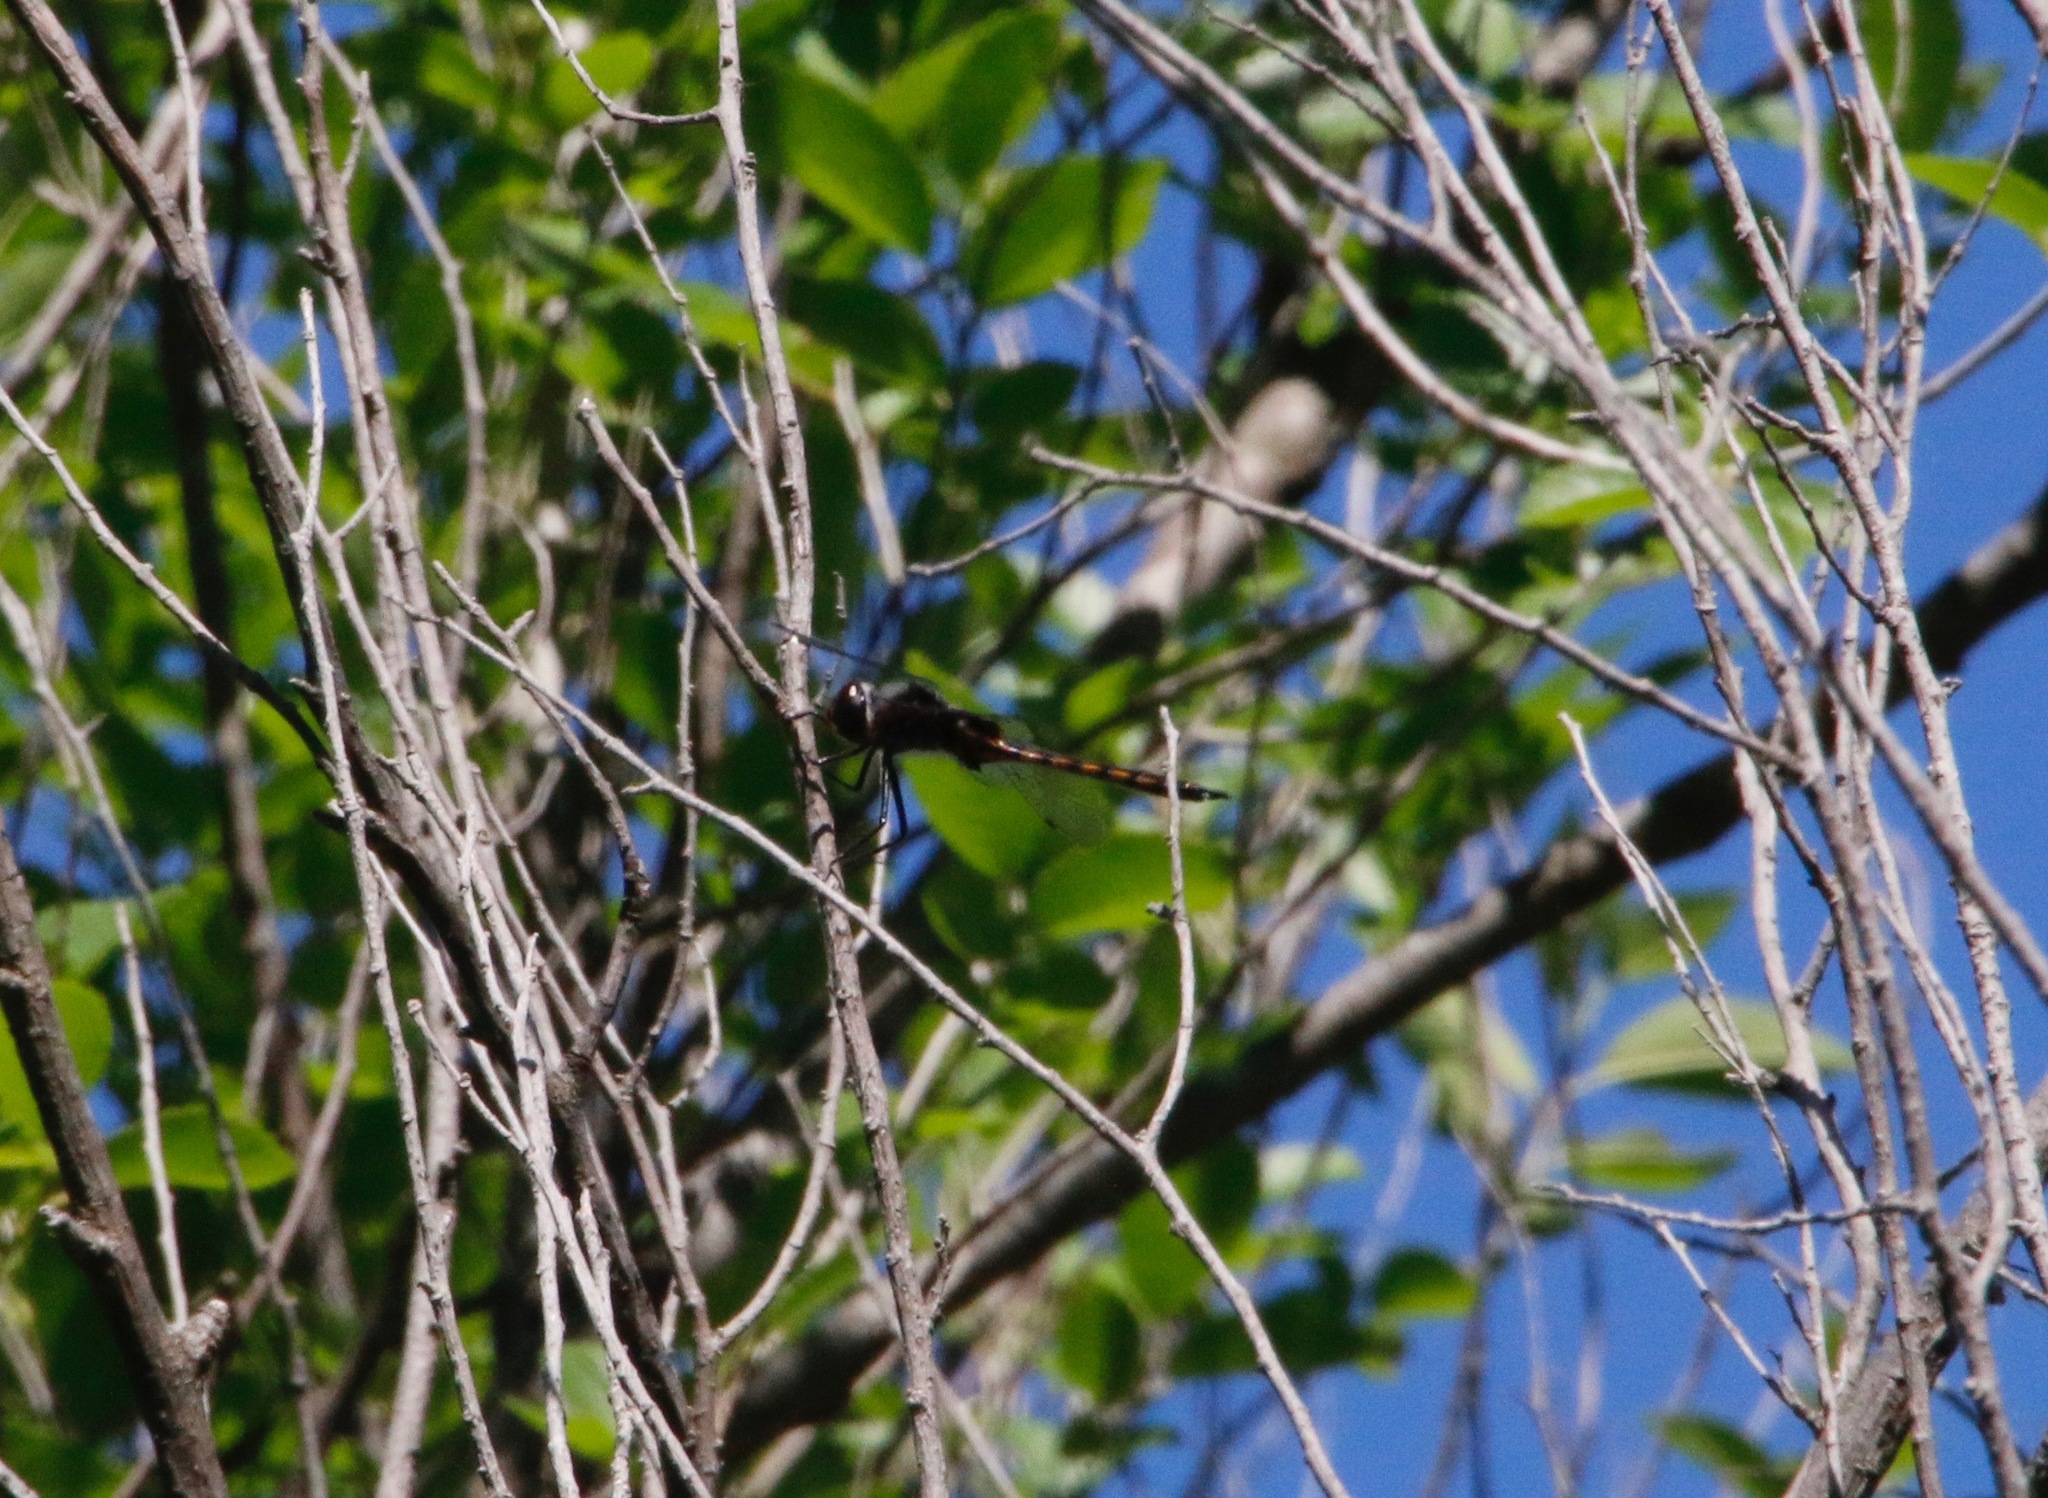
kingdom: Animalia
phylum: Arthropoda
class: Insecta
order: Odonata
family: Corduliidae
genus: Epitheca
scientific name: Epitheca cynosura
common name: Common baskettail
